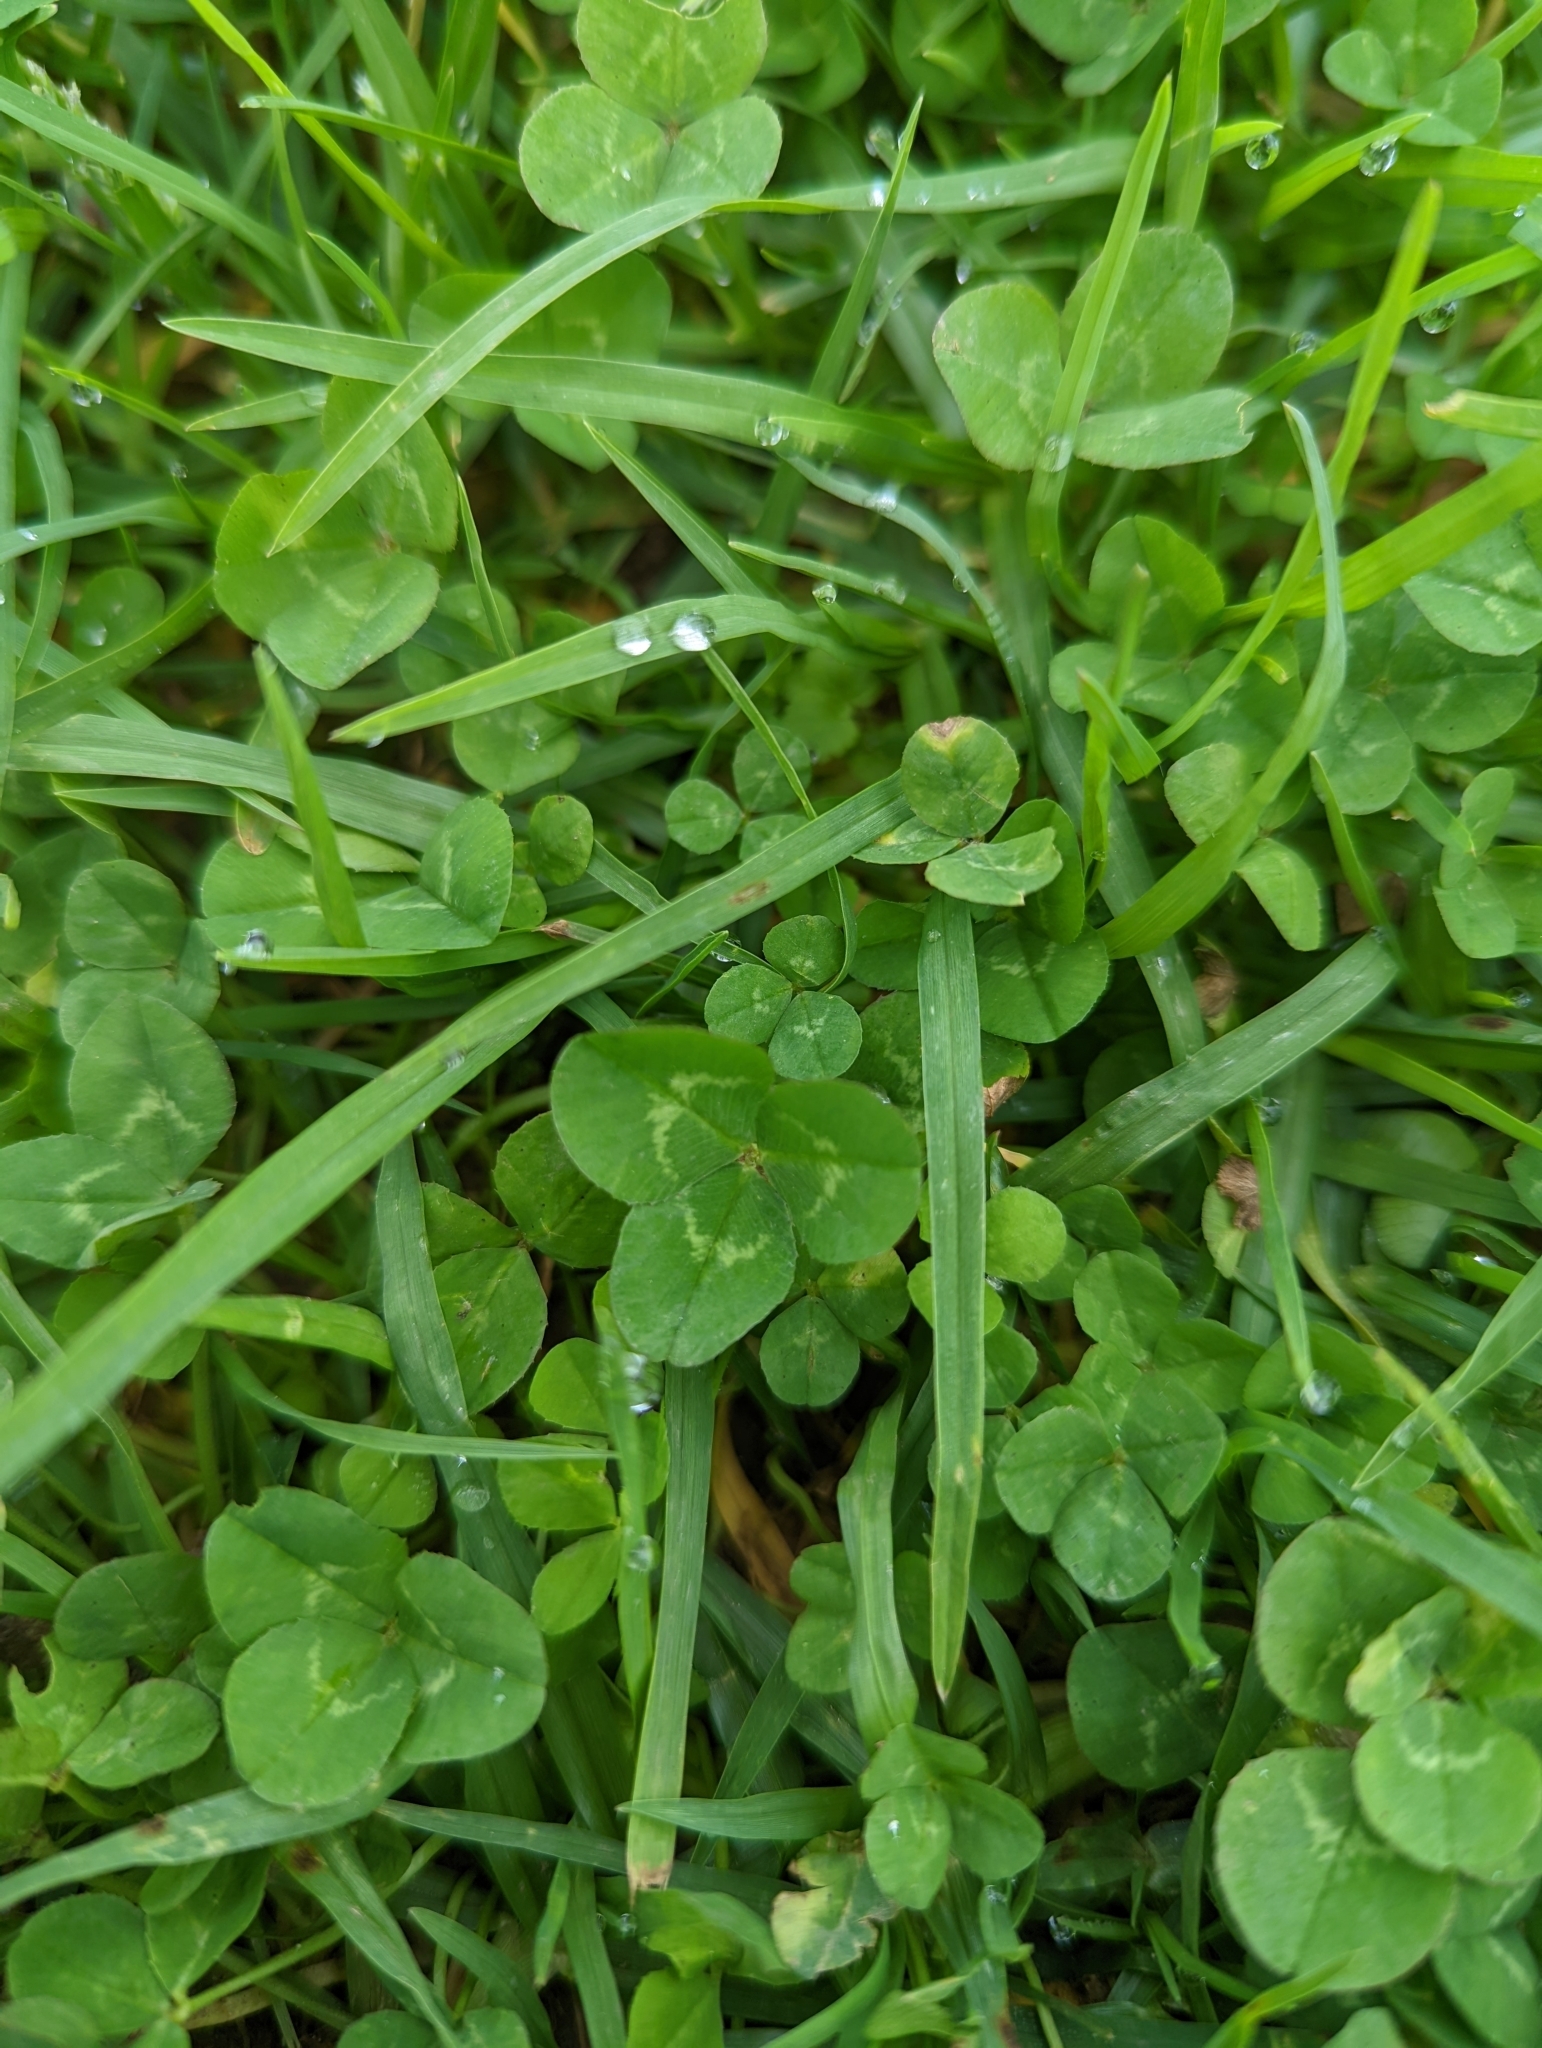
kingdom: Plantae
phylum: Tracheophyta
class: Magnoliopsida
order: Fabales
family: Fabaceae
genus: Trifolium
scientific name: Trifolium repens
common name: White clover
